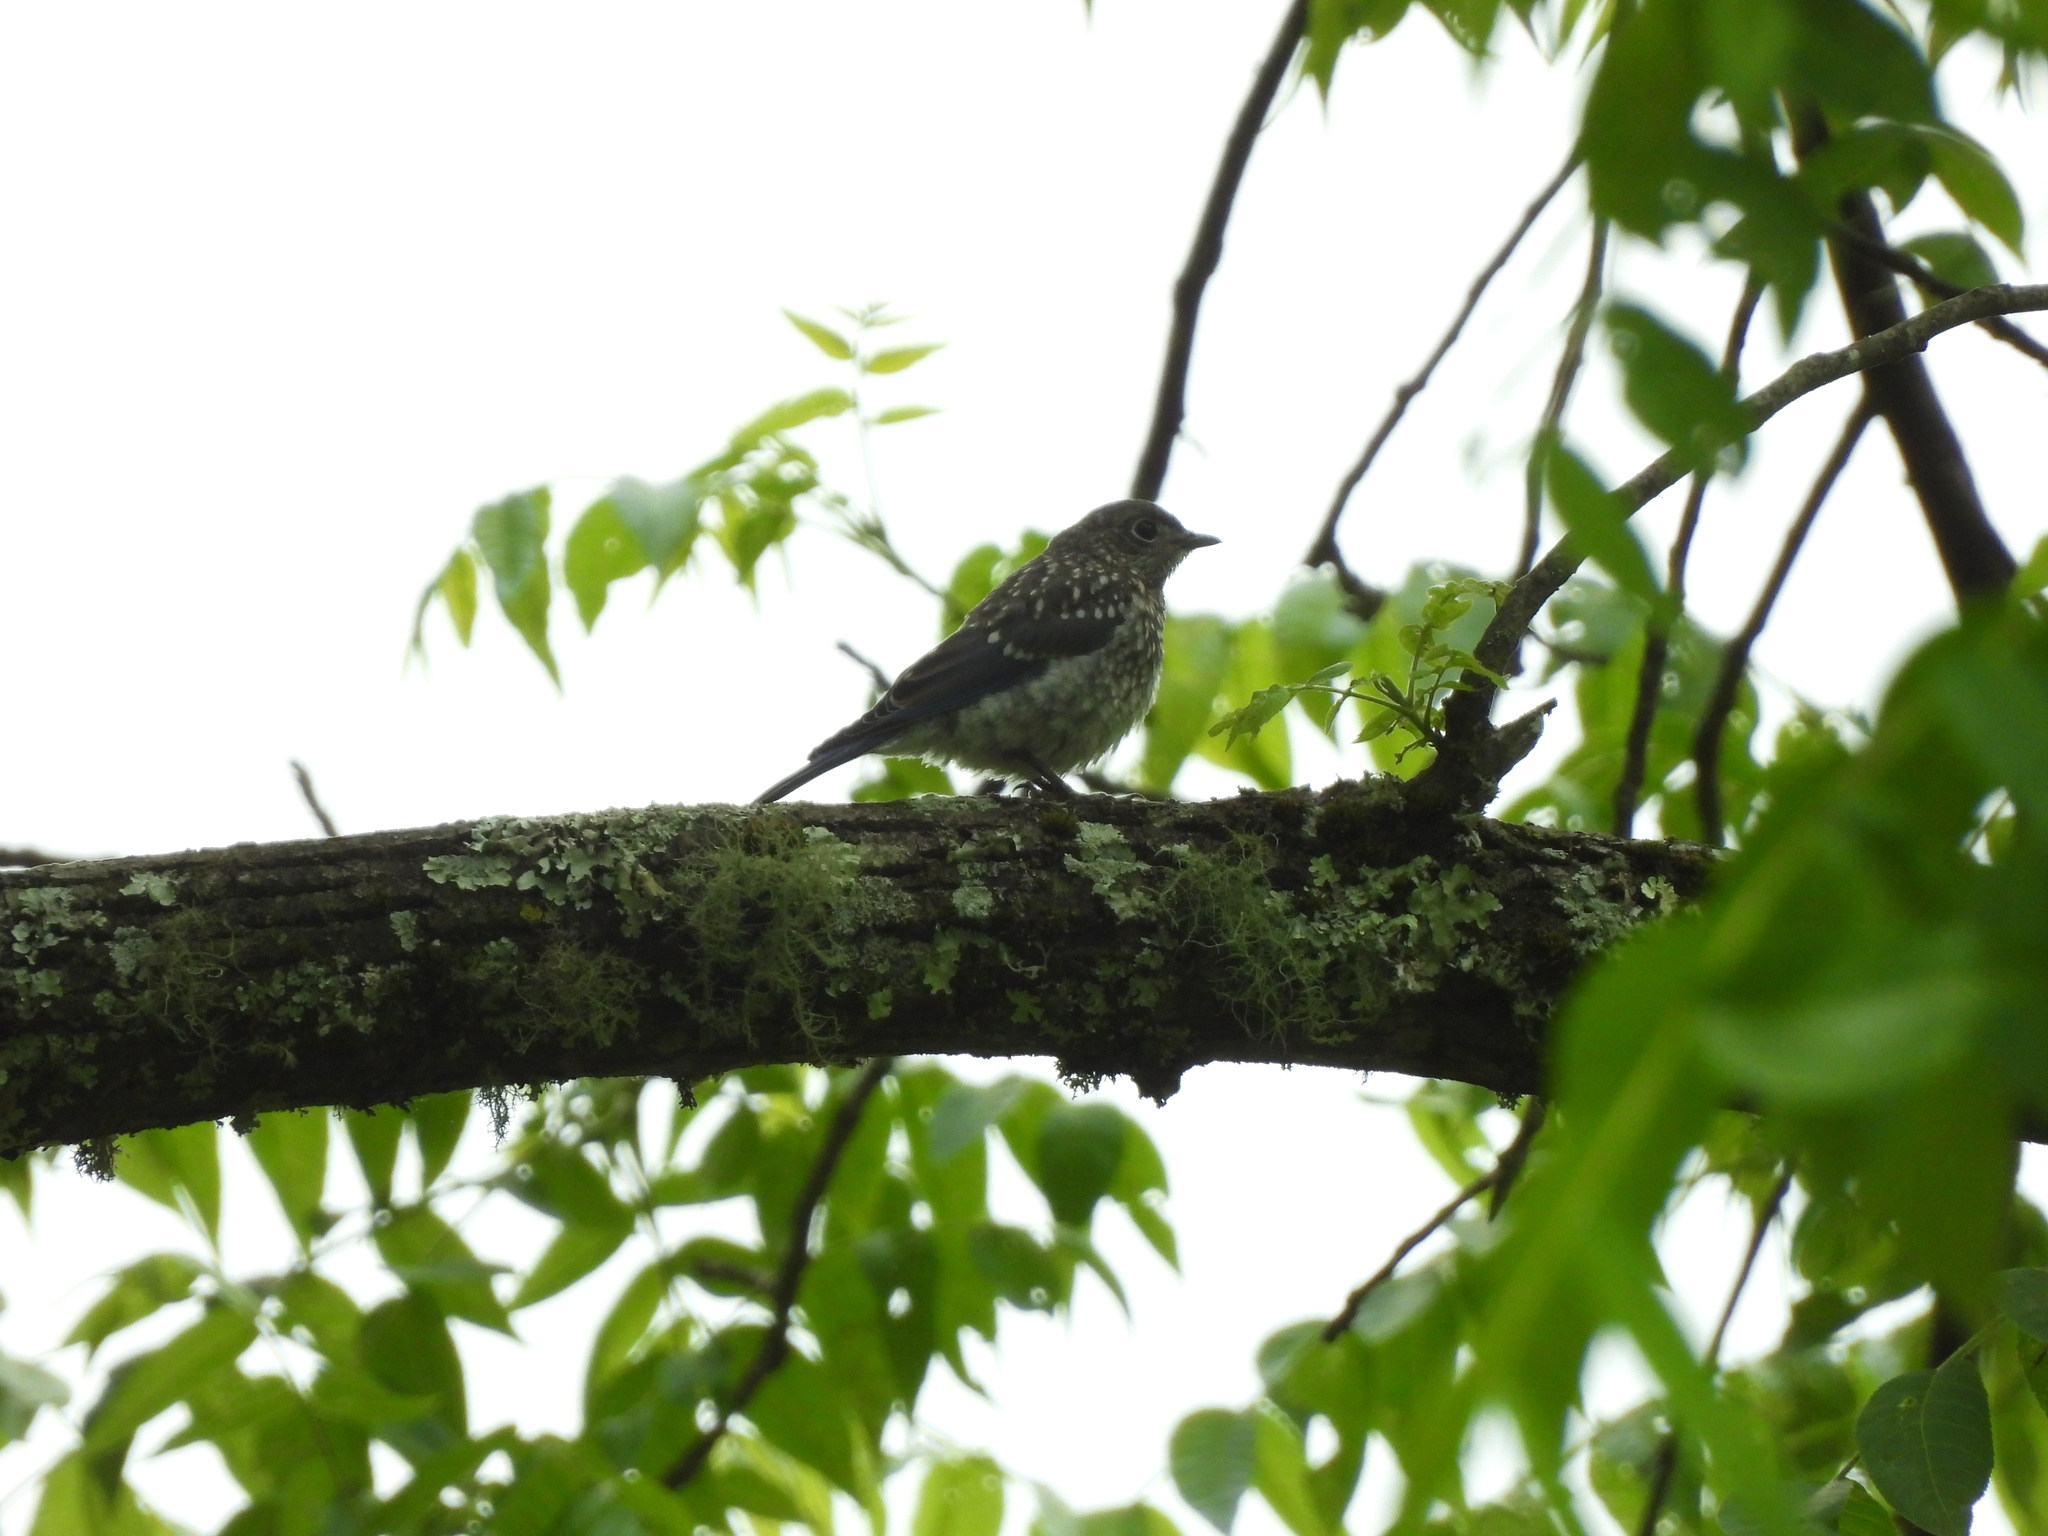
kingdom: Animalia
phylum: Chordata
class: Aves
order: Passeriformes
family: Turdidae
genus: Sialia
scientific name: Sialia sialis
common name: Eastern bluebird
